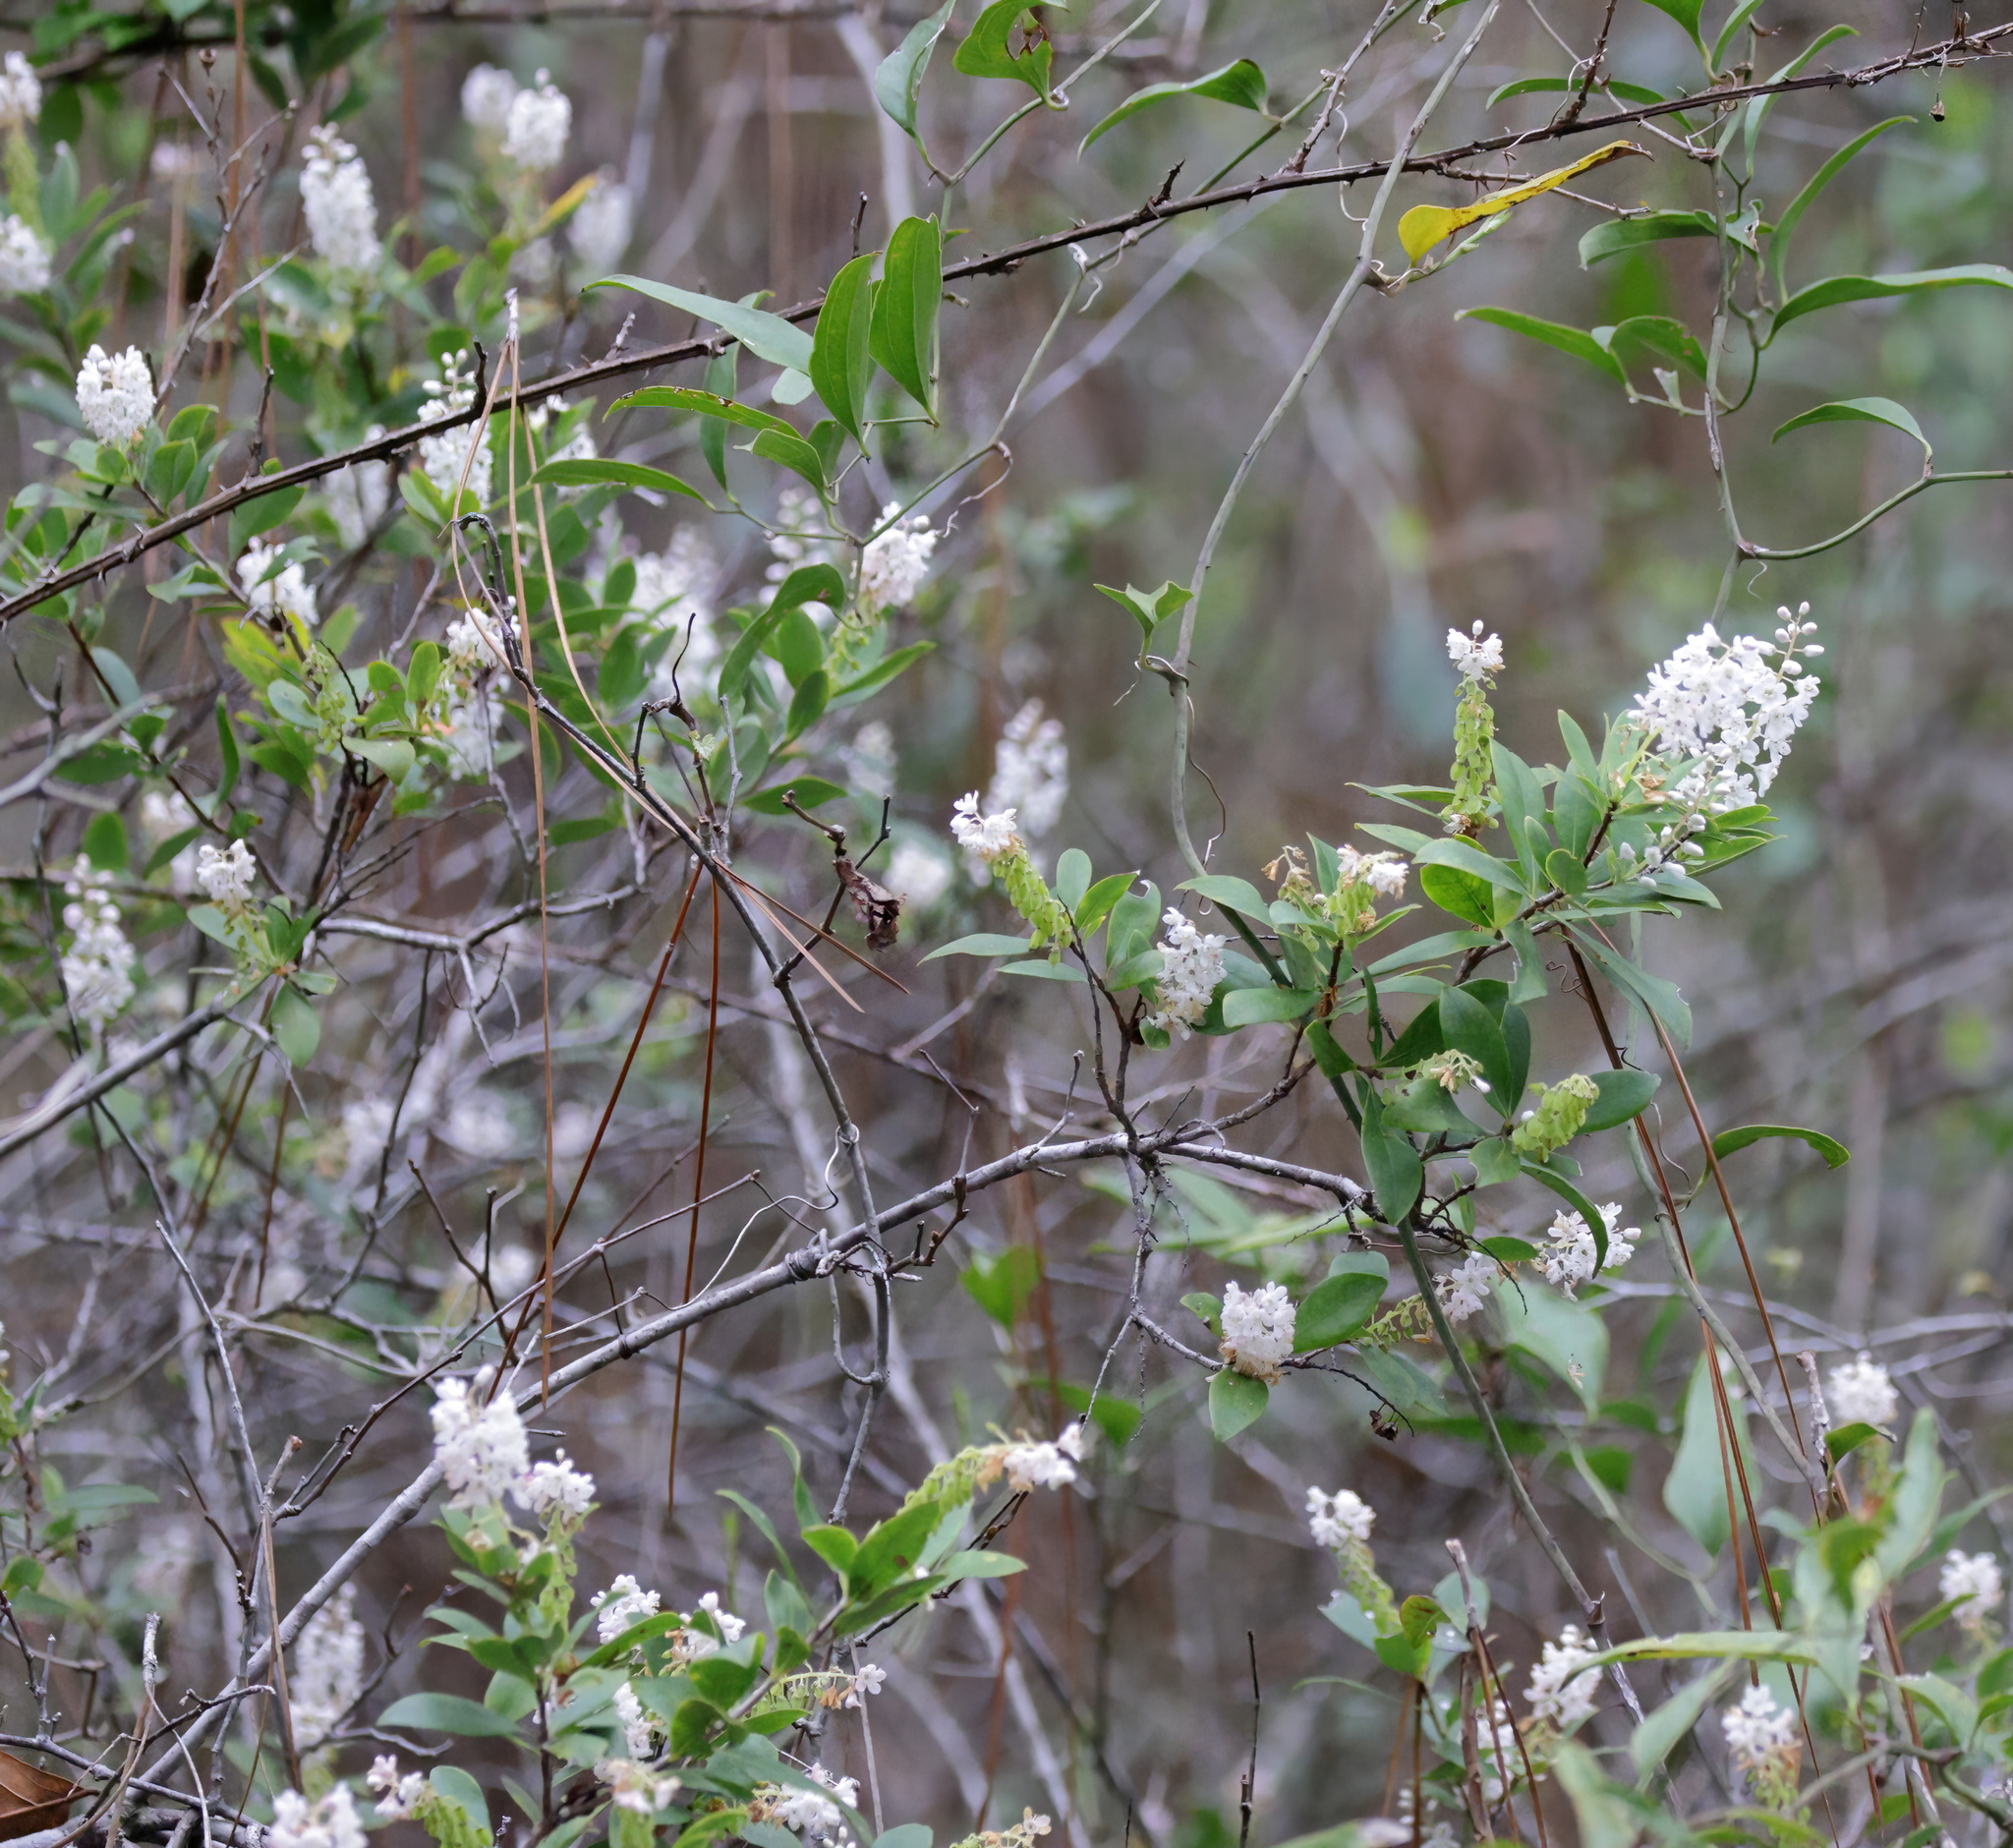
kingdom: Plantae
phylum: Tracheophyta
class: Magnoliopsida
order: Ericales
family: Cyrillaceae
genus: Cliftonia
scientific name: Cliftonia monophylla
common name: Titi
